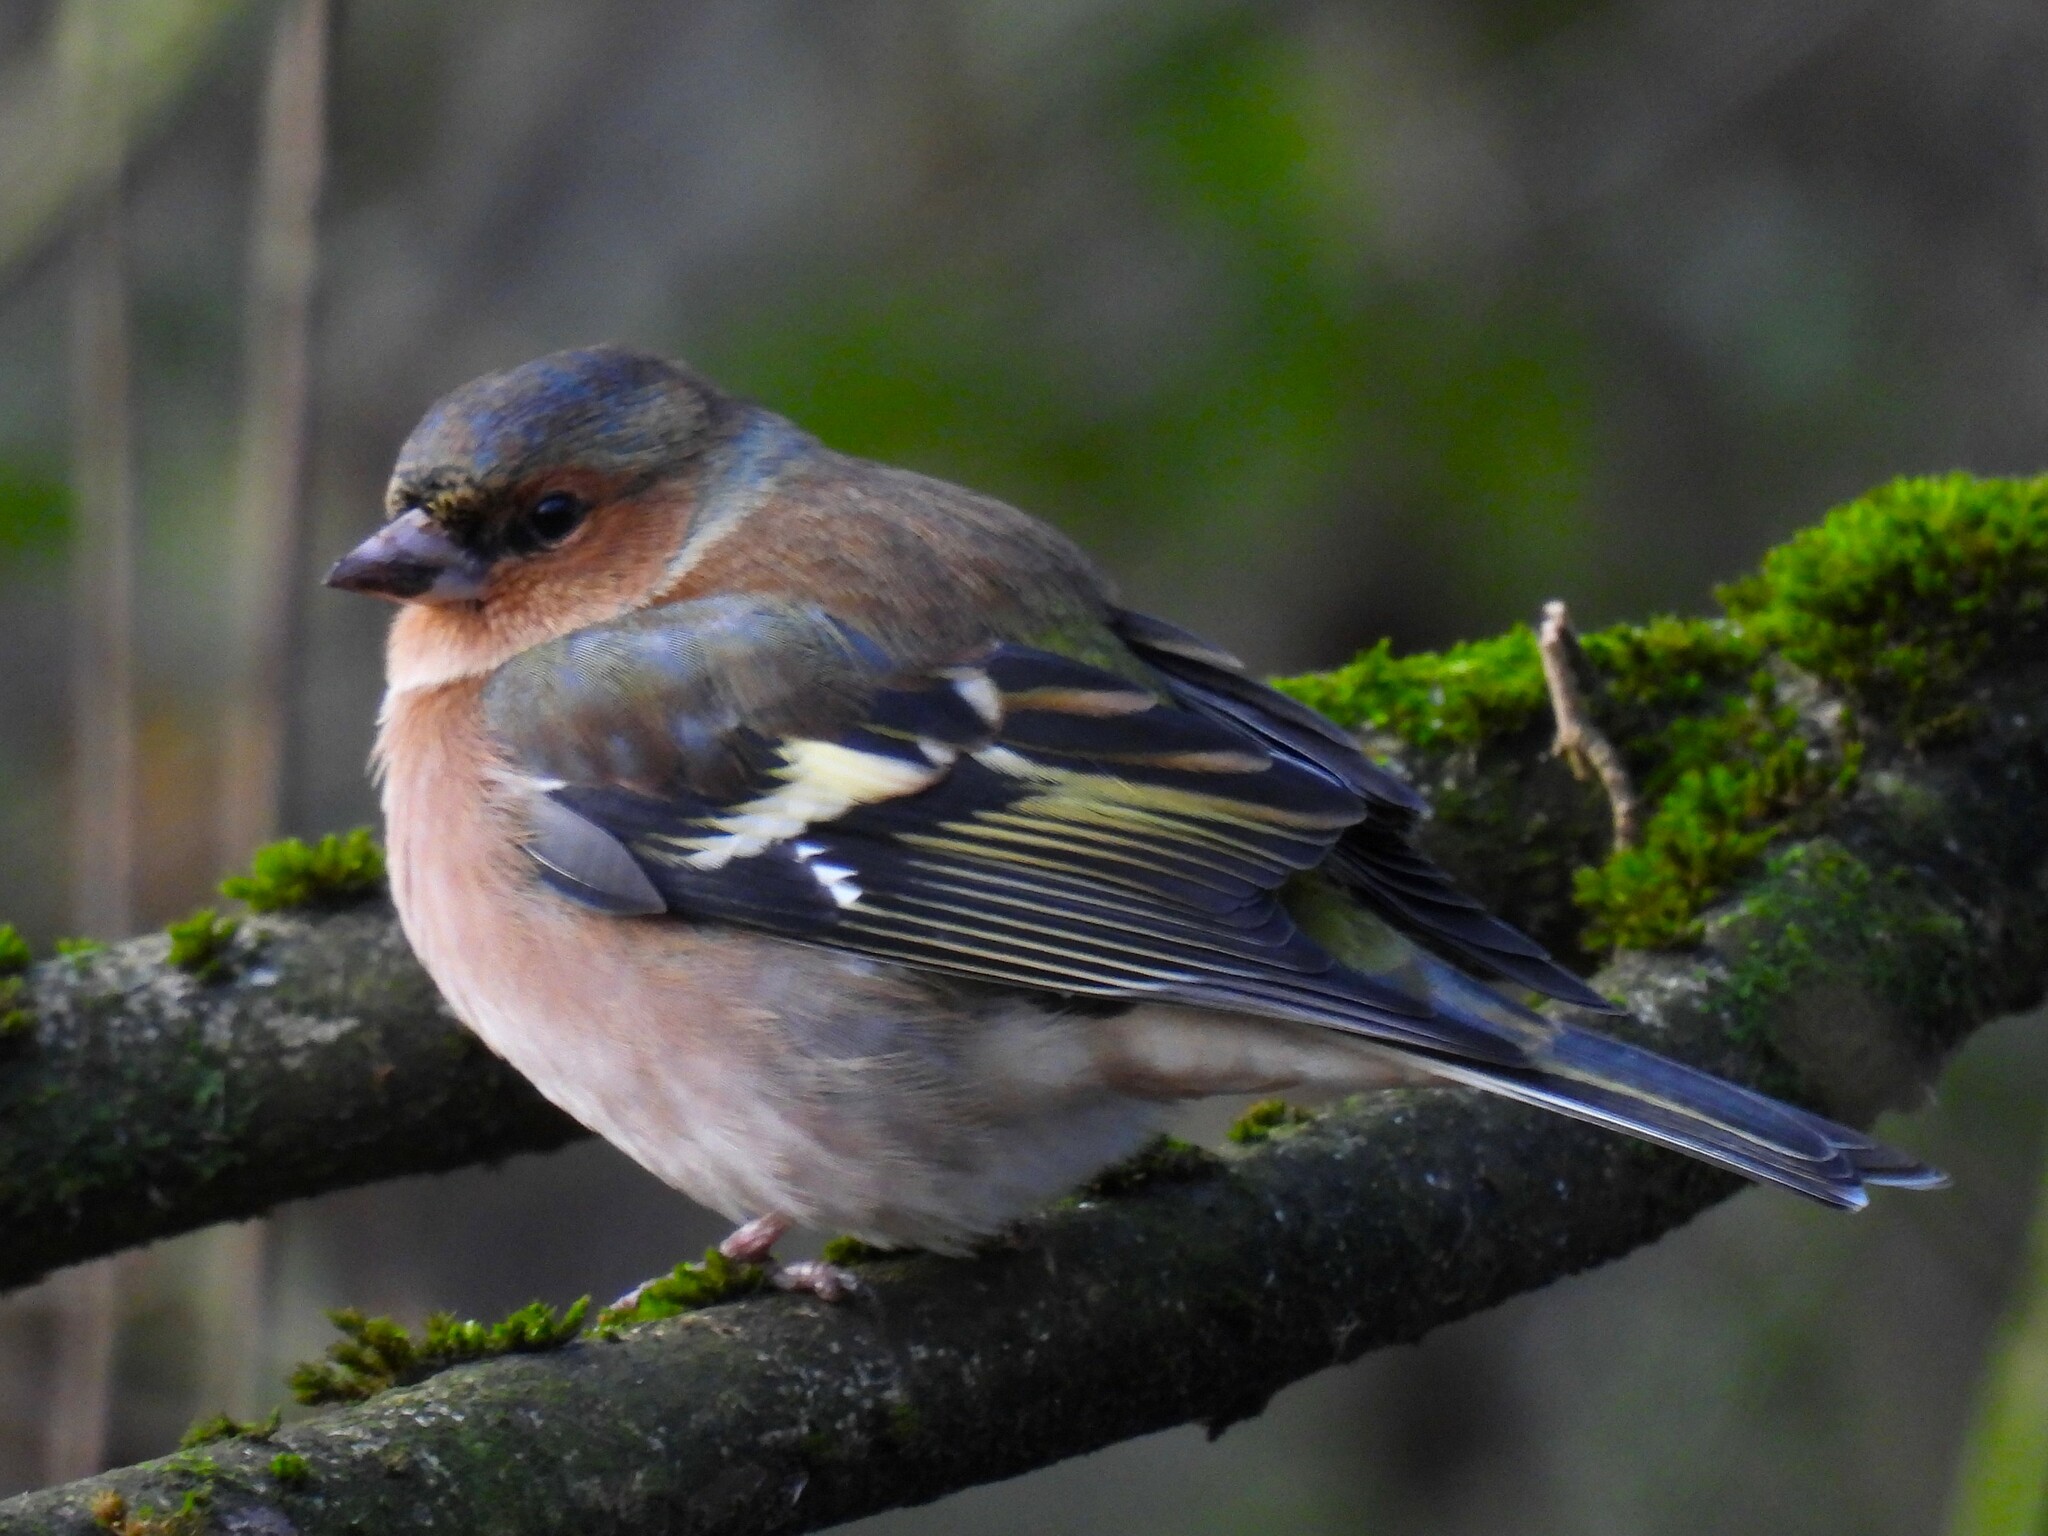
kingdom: Animalia
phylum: Chordata
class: Aves
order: Passeriformes
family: Fringillidae
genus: Fringilla
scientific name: Fringilla coelebs
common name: Common chaffinch
